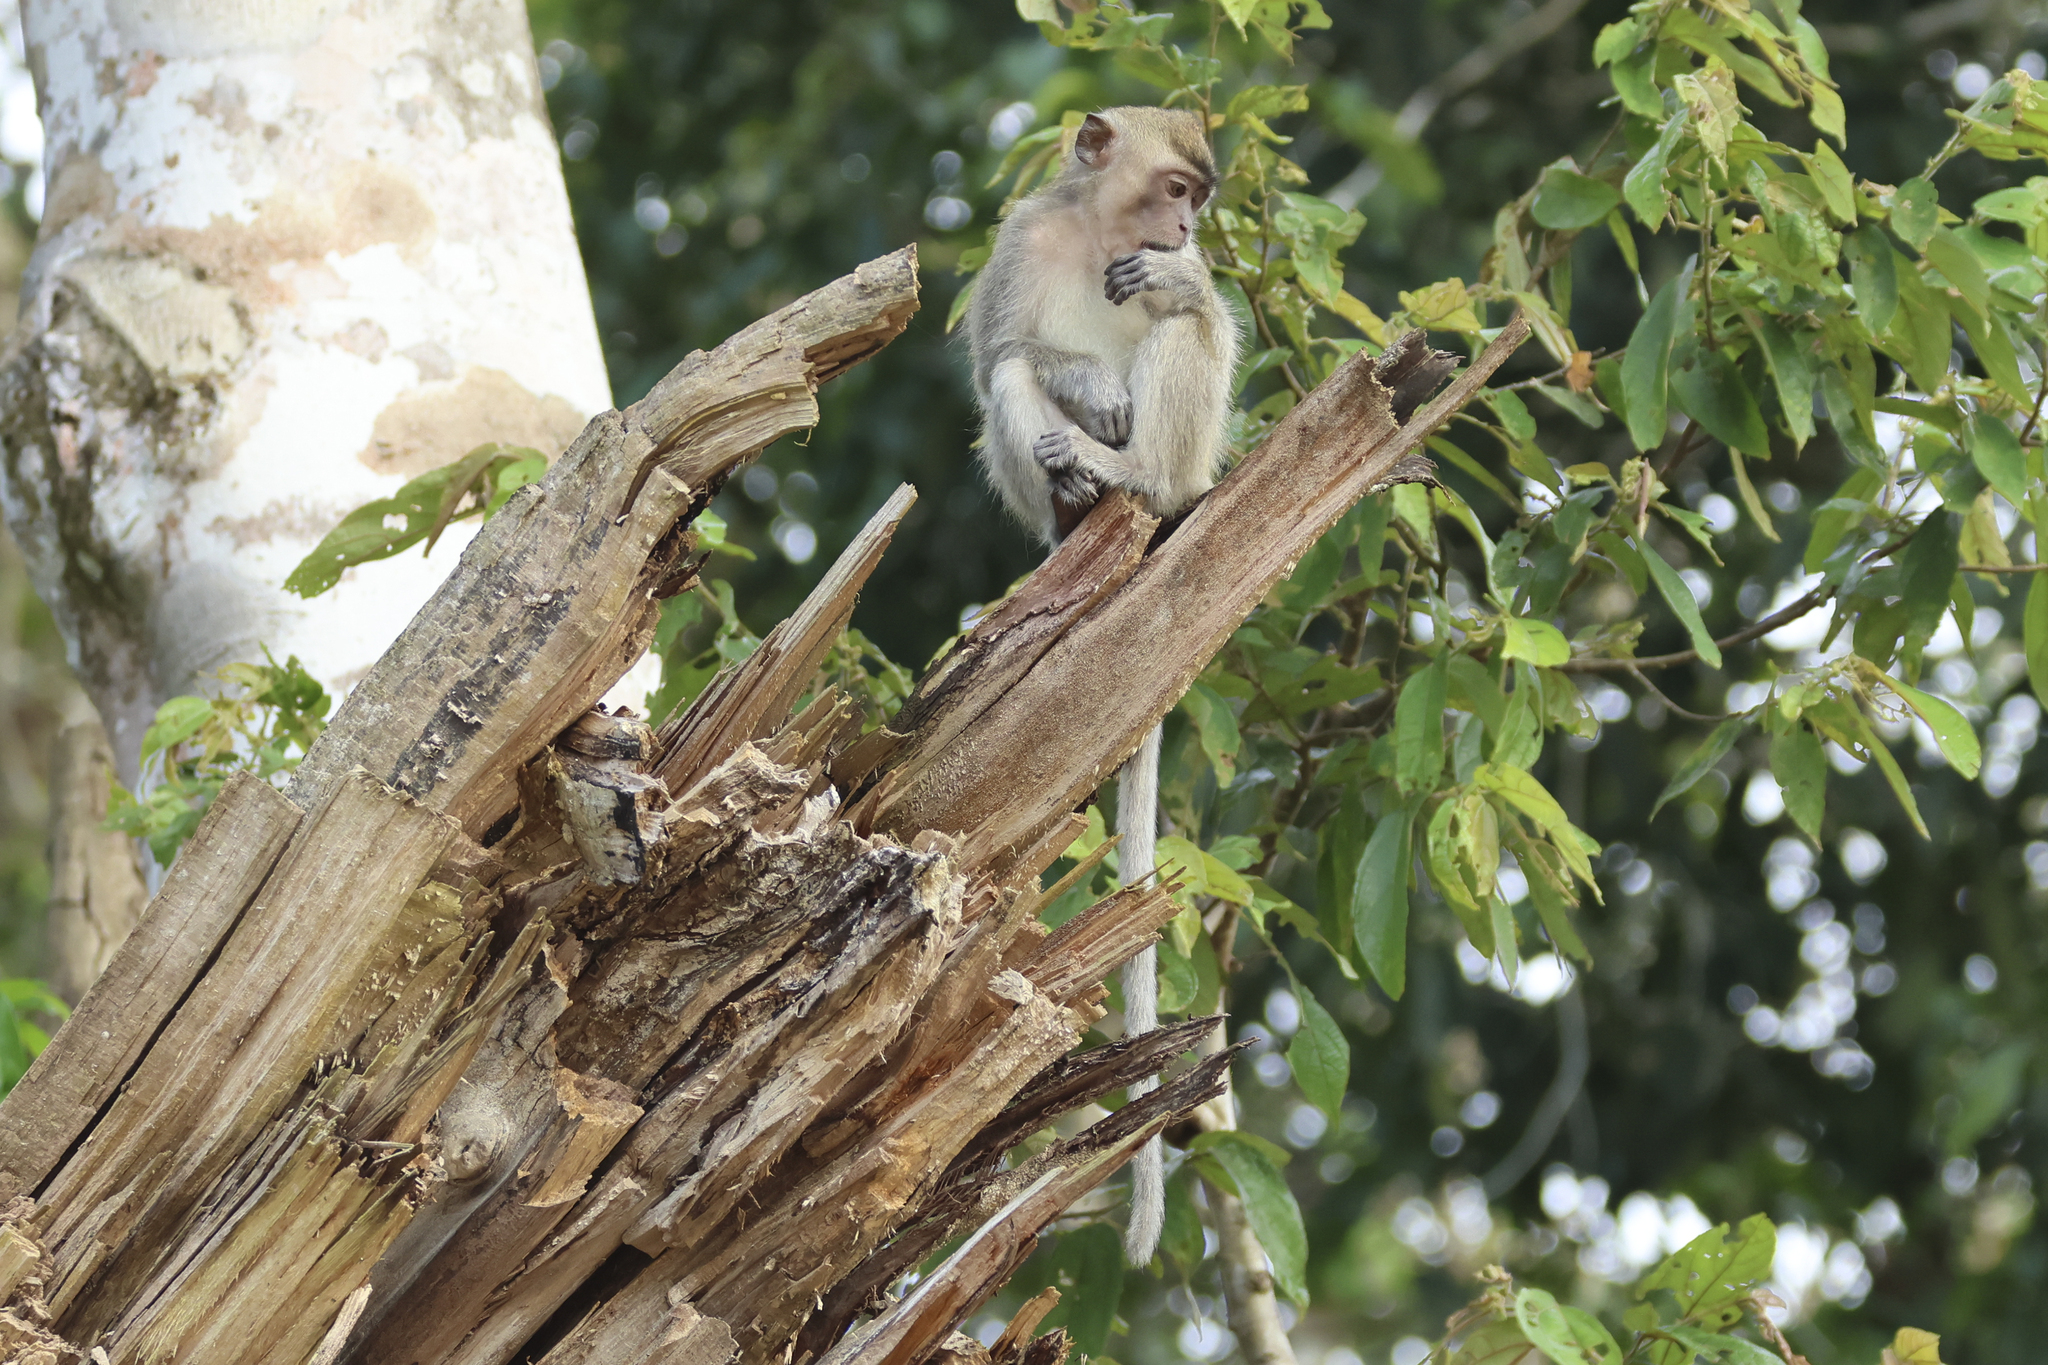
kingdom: Animalia
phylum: Chordata
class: Mammalia
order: Primates
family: Cercopithecidae
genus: Macaca
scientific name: Macaca fascicularis
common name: Crab-eating macaque
